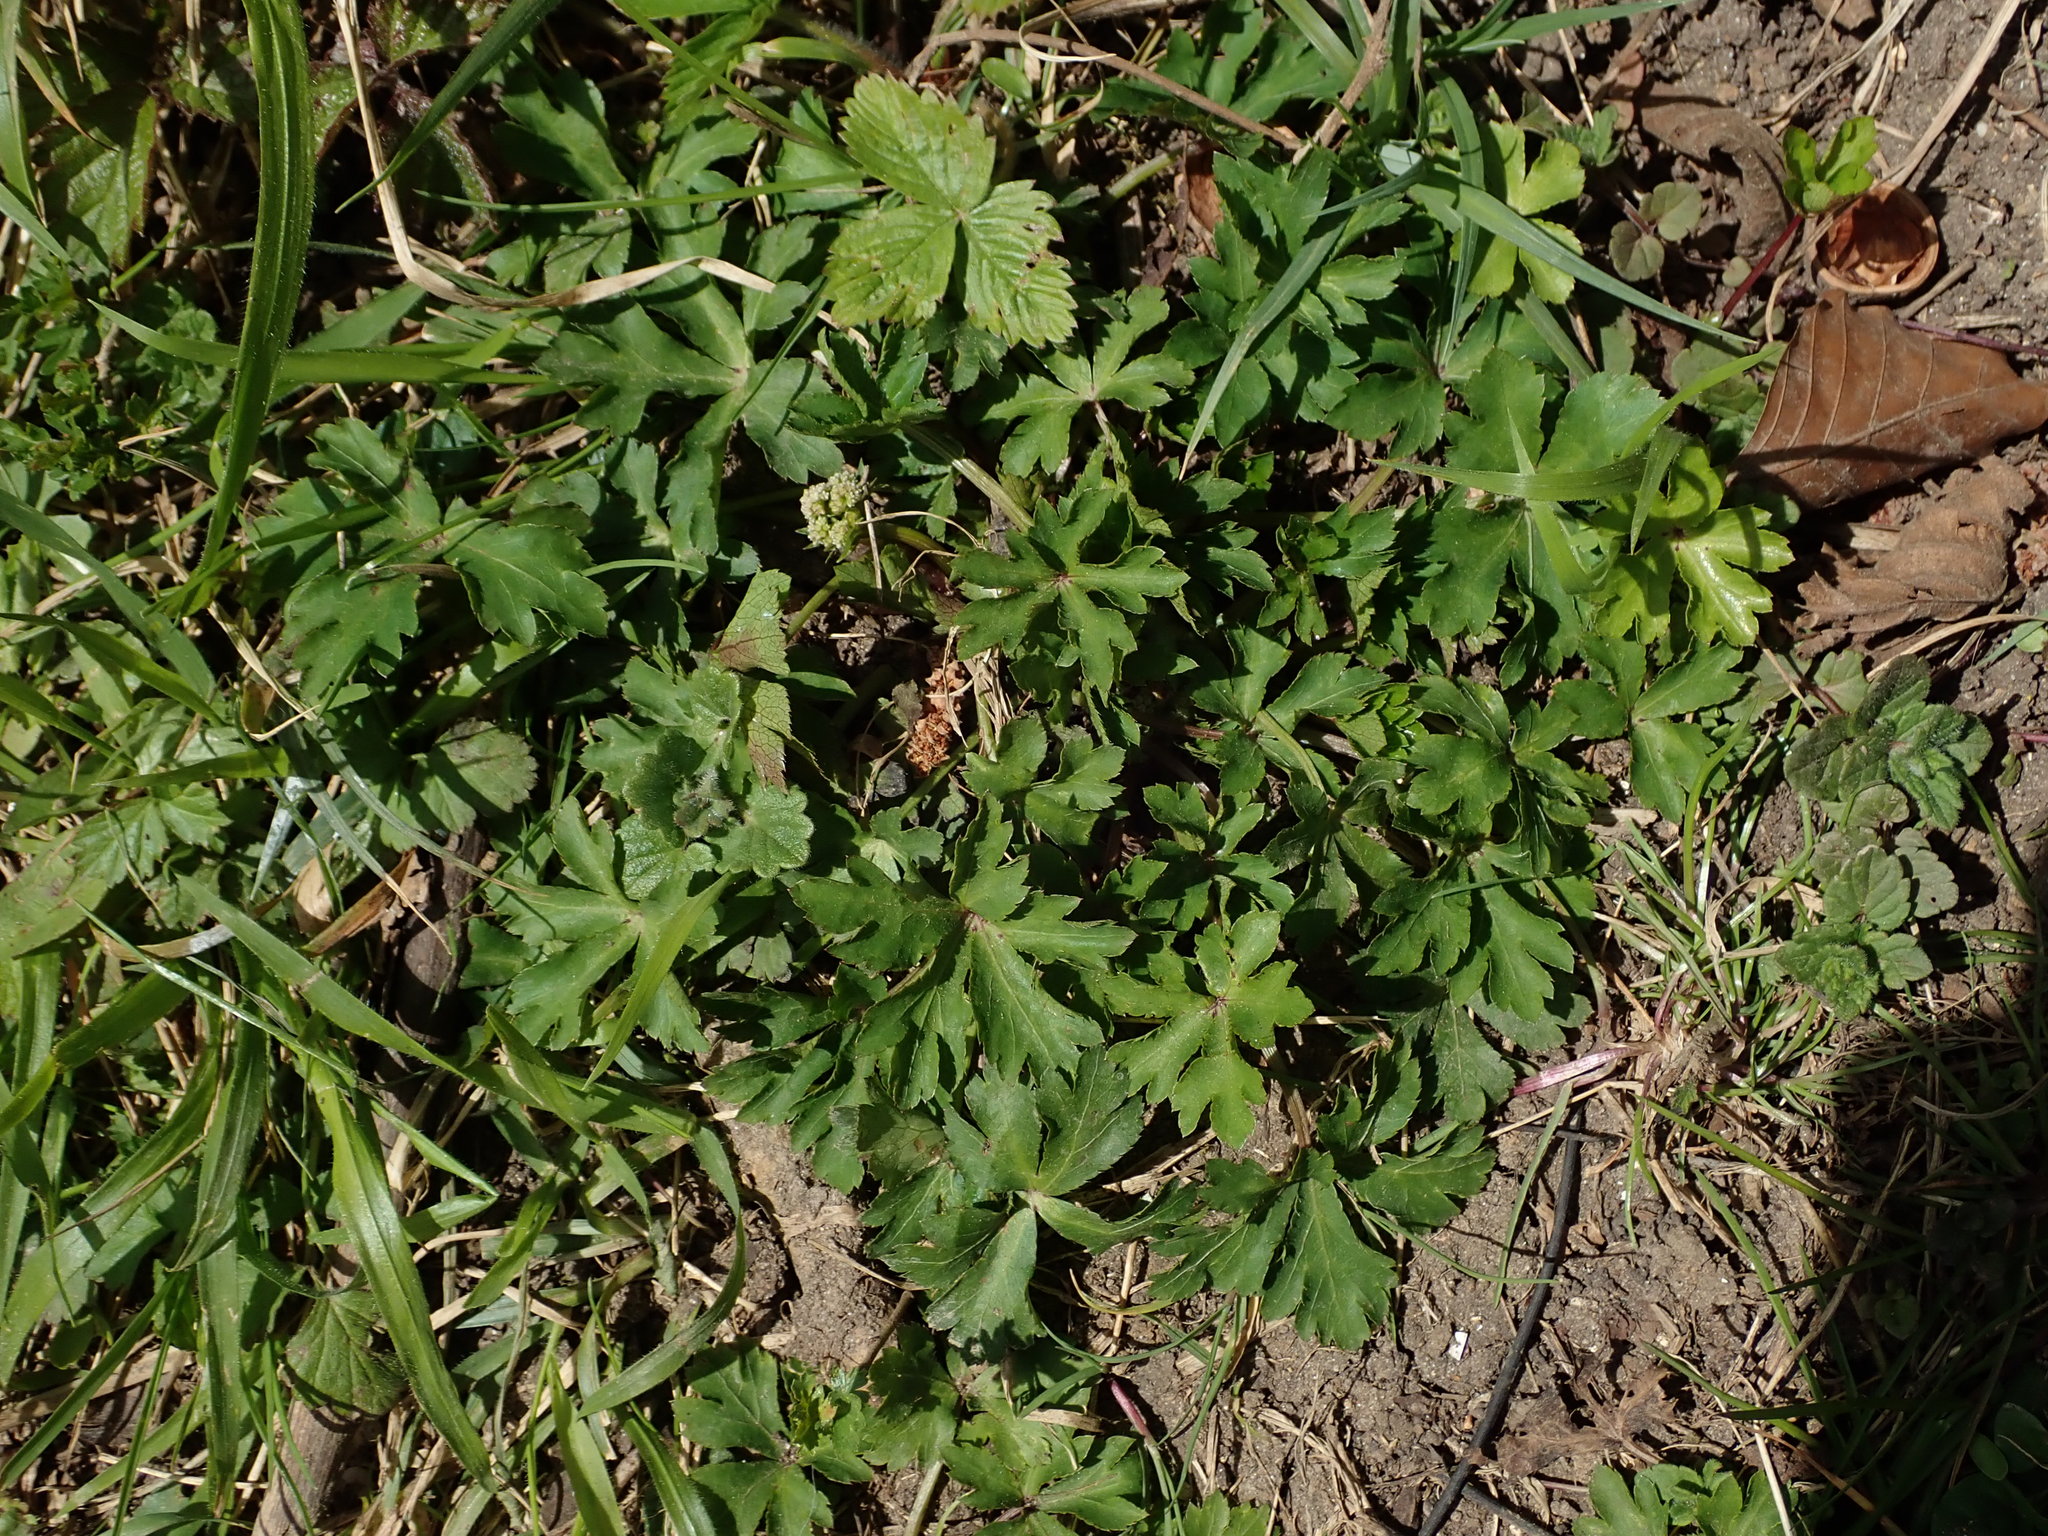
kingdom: Plantae
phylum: Tracheophyta
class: Magnoliopsida
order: Apiales
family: Apiaceae
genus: Sanicula
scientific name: Sanicula europaea
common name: Sanicle
